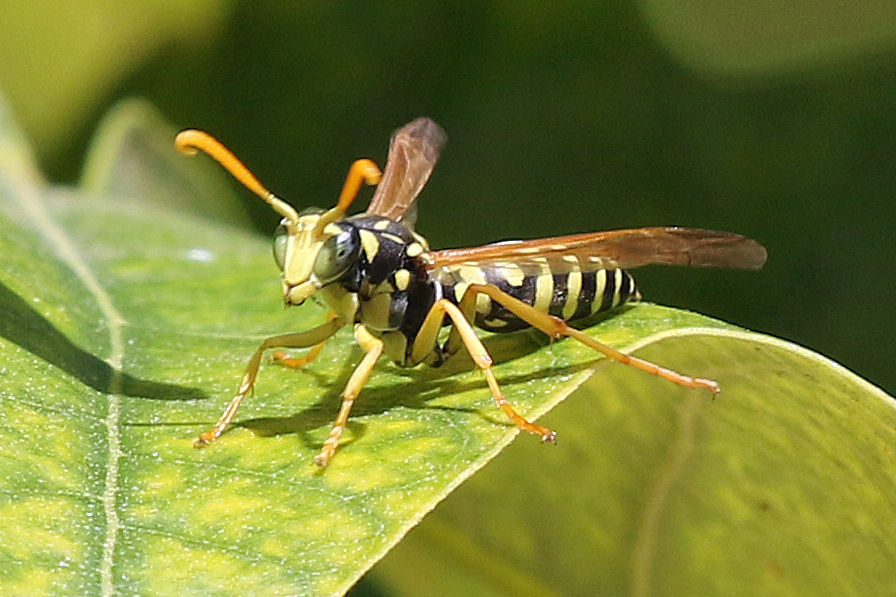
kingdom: Animalia
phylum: Arthropoda
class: Insecta
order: Hymenoptera
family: Eumenidae
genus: Polistes
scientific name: Polistes gallicus
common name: Paper wasp
